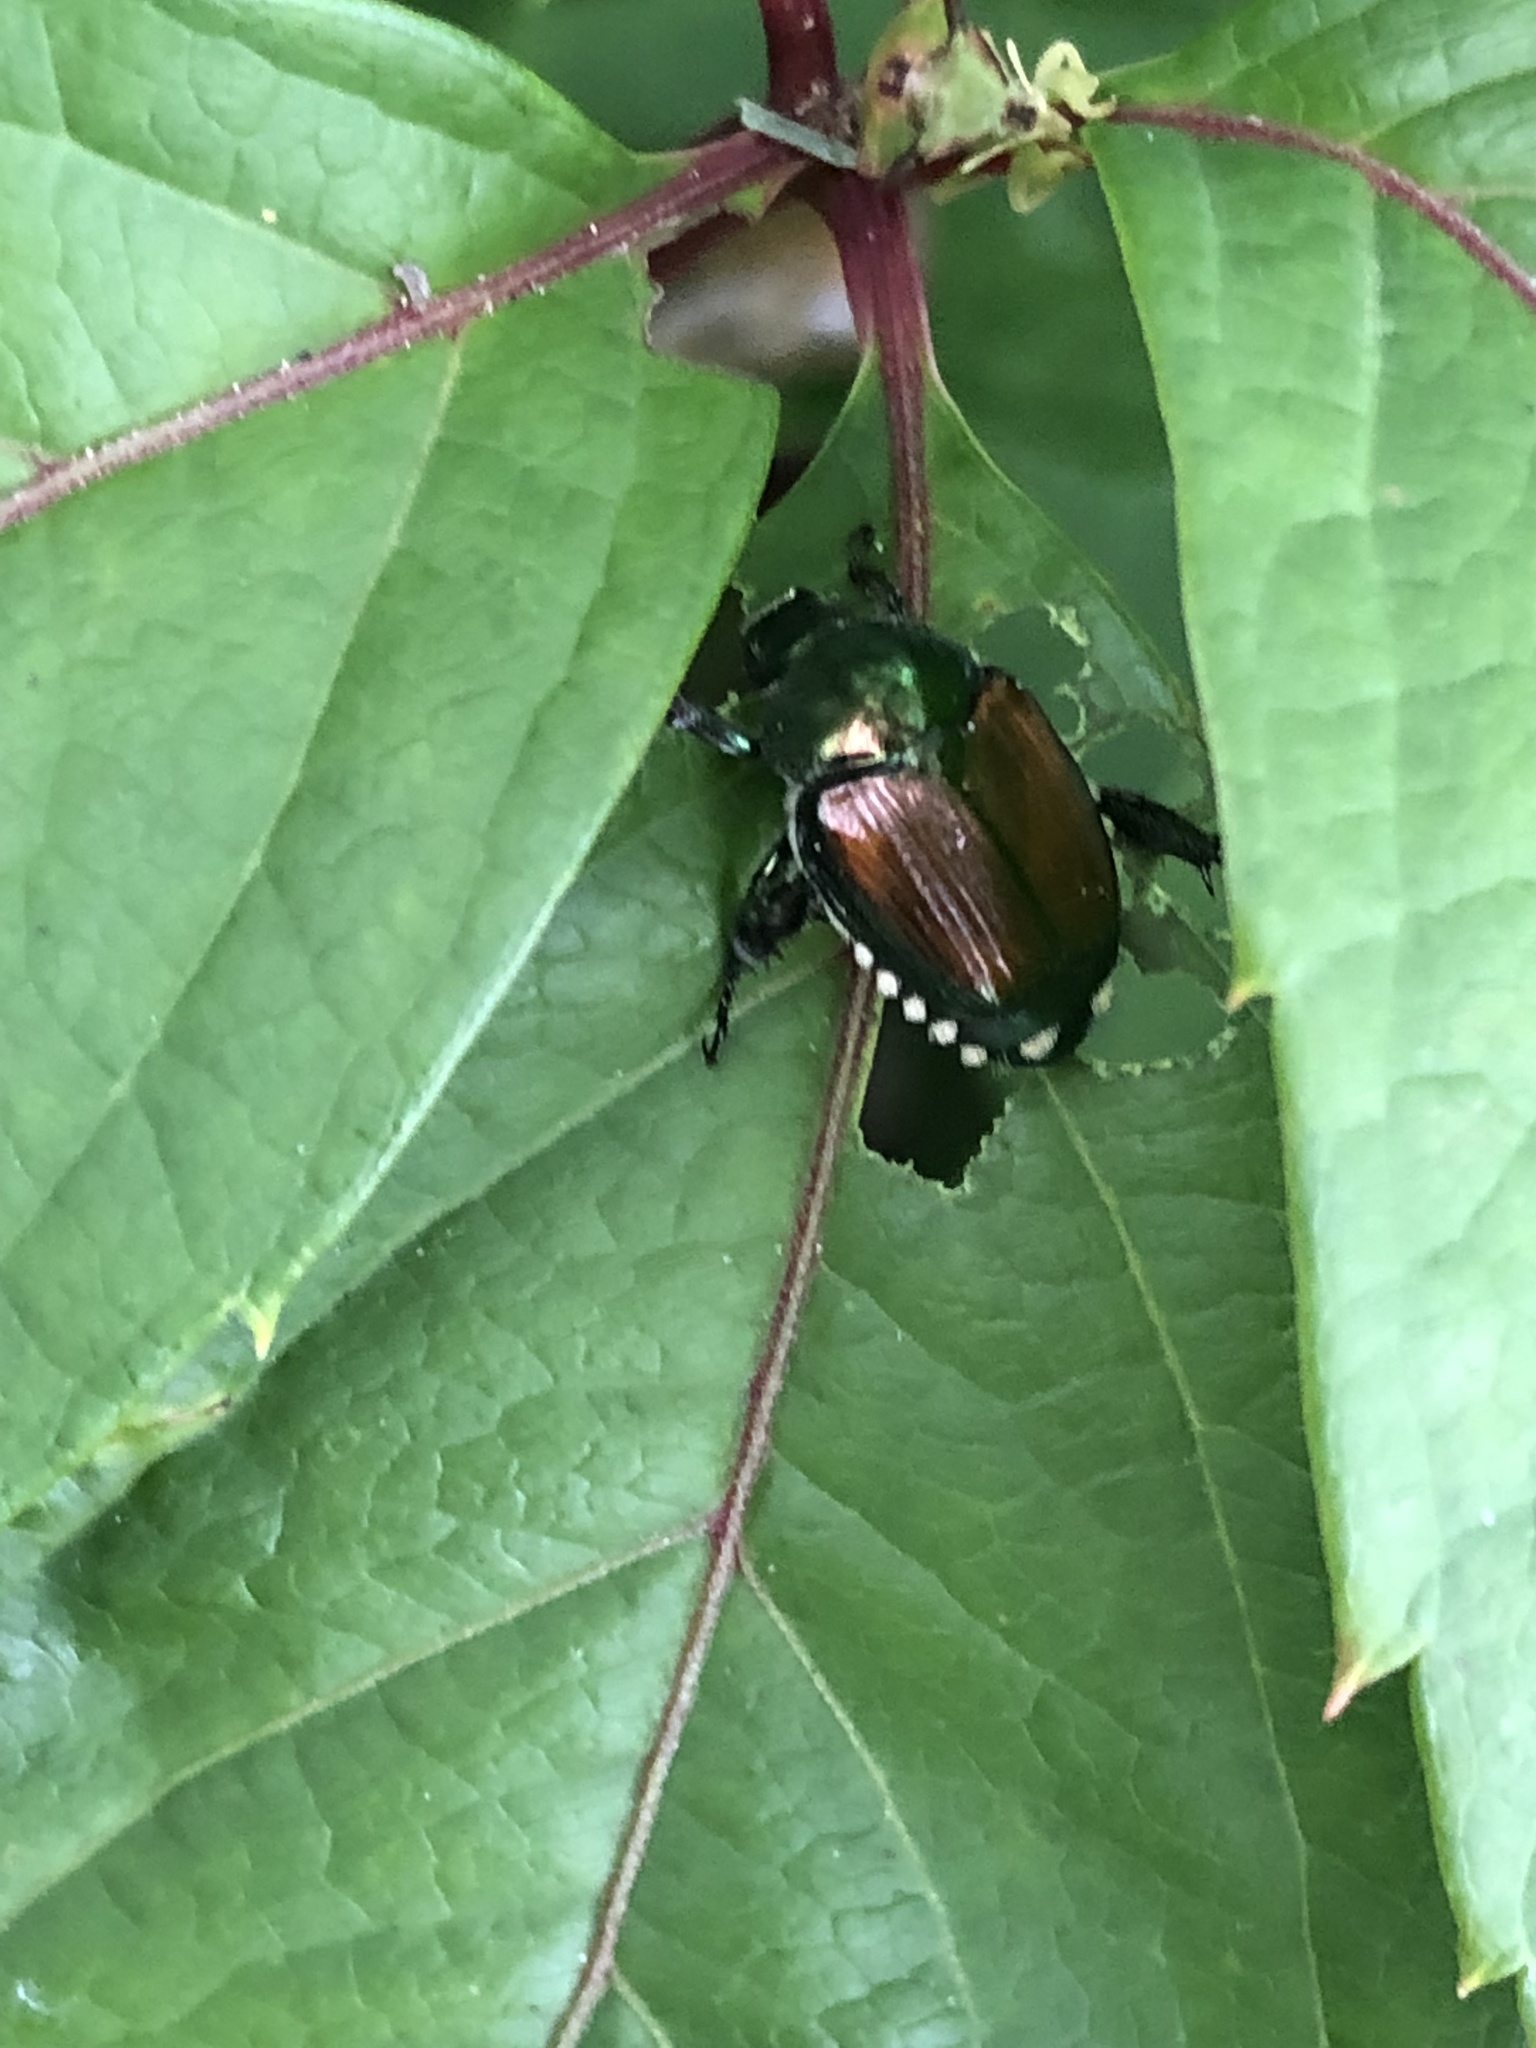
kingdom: Animalia
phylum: Arthropoda
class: Insecta
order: Coleoptera
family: Scarabaeidae
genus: Popillia
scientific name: Popillia japonica
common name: Japanese beetle
